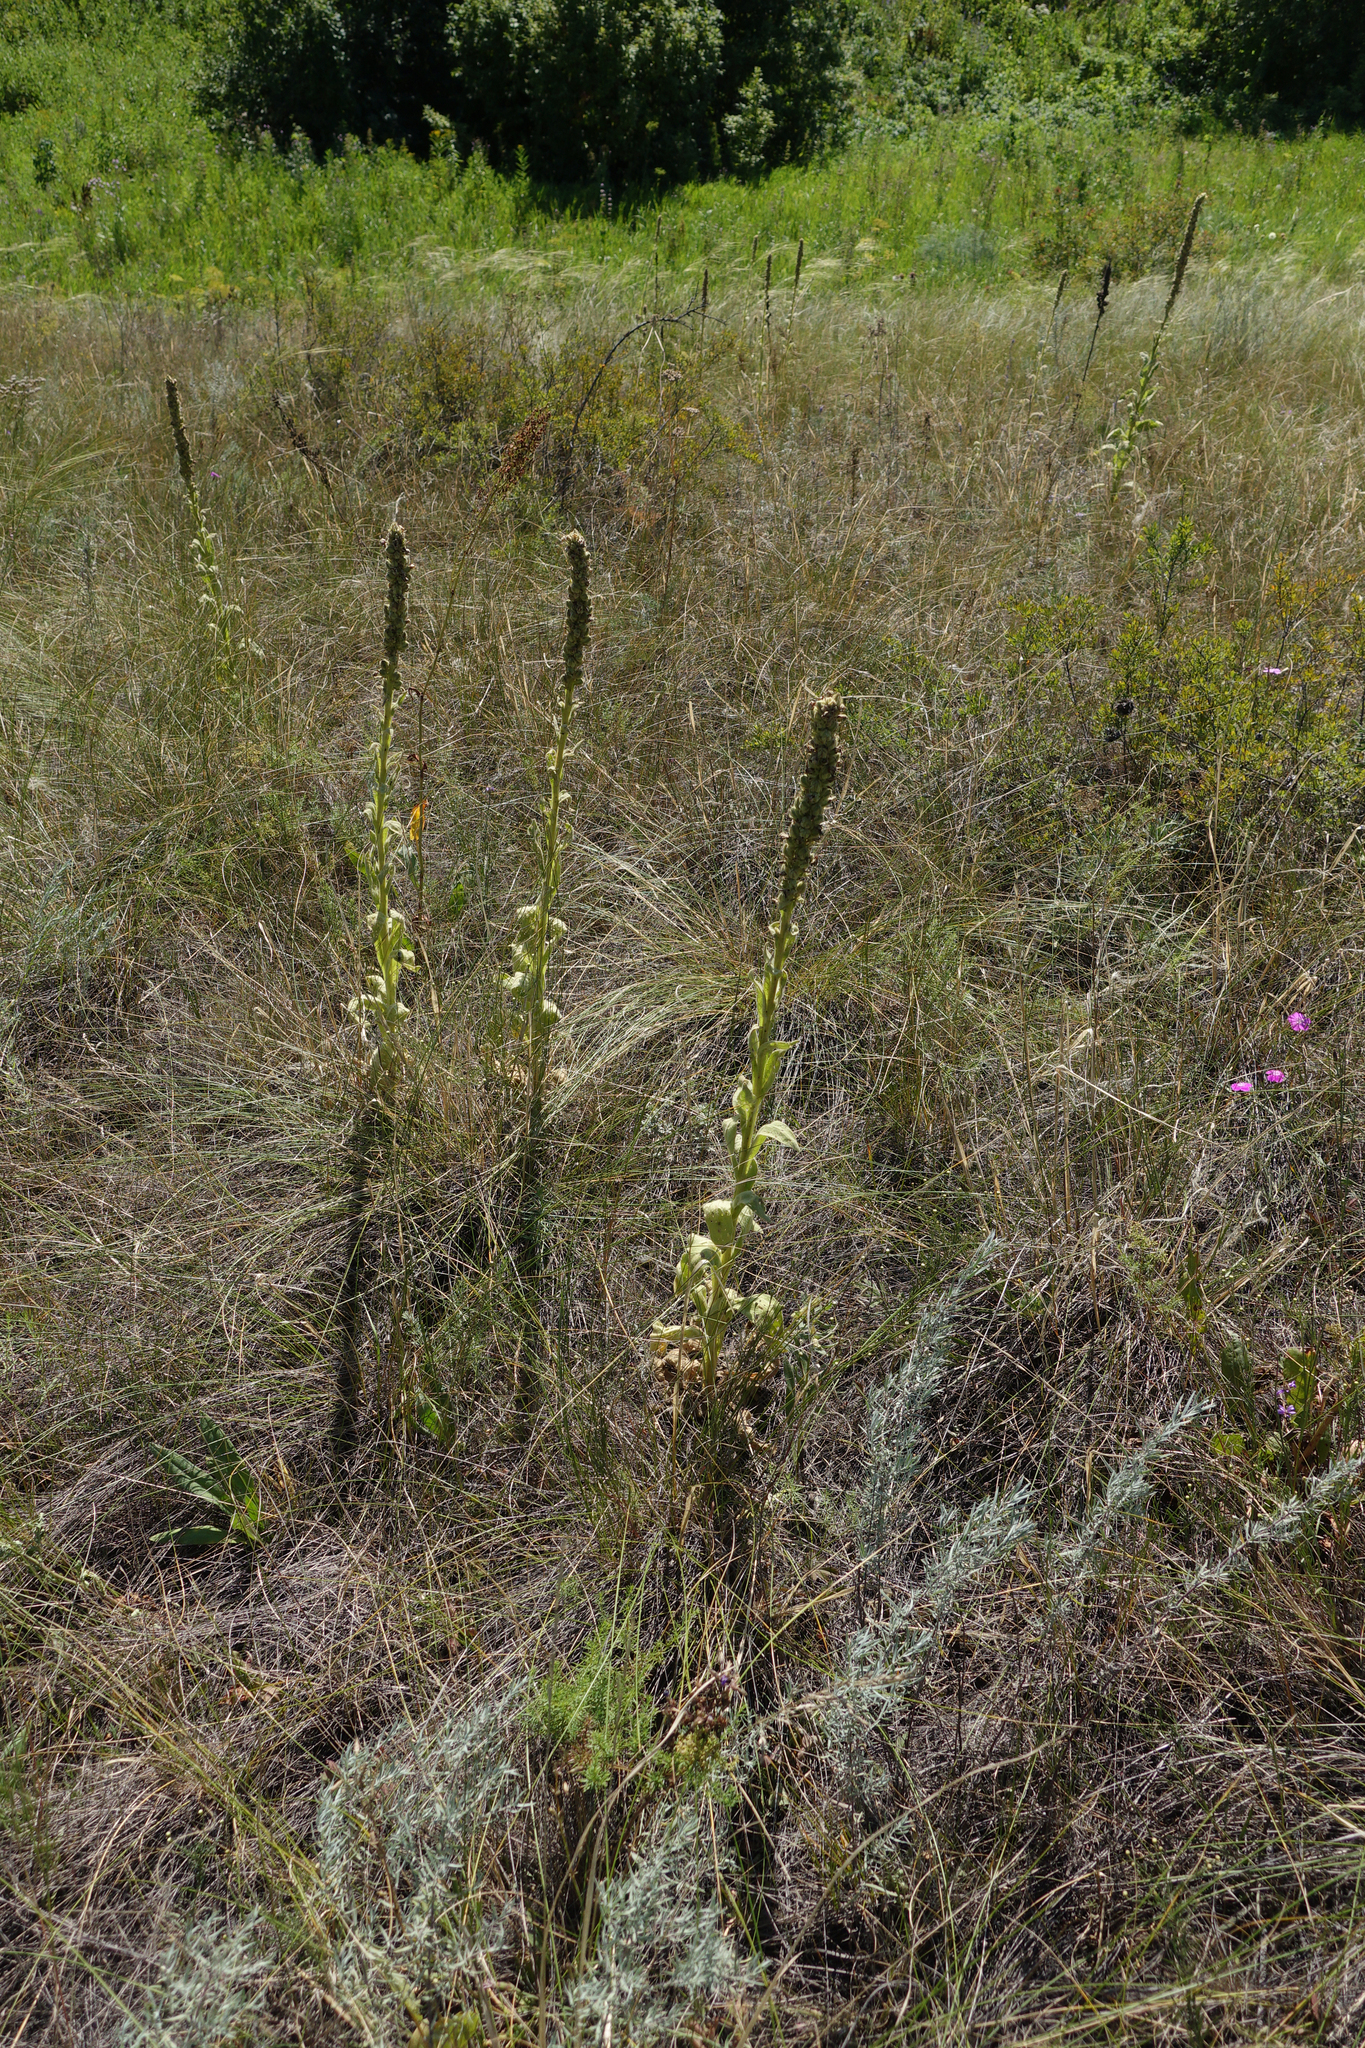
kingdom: Plantae
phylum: Tracheophyta
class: Magnoliopsida
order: Lamiales
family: Scrophulariaceae
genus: Verbascum
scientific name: Verbascum thapsus
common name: Common mullein
